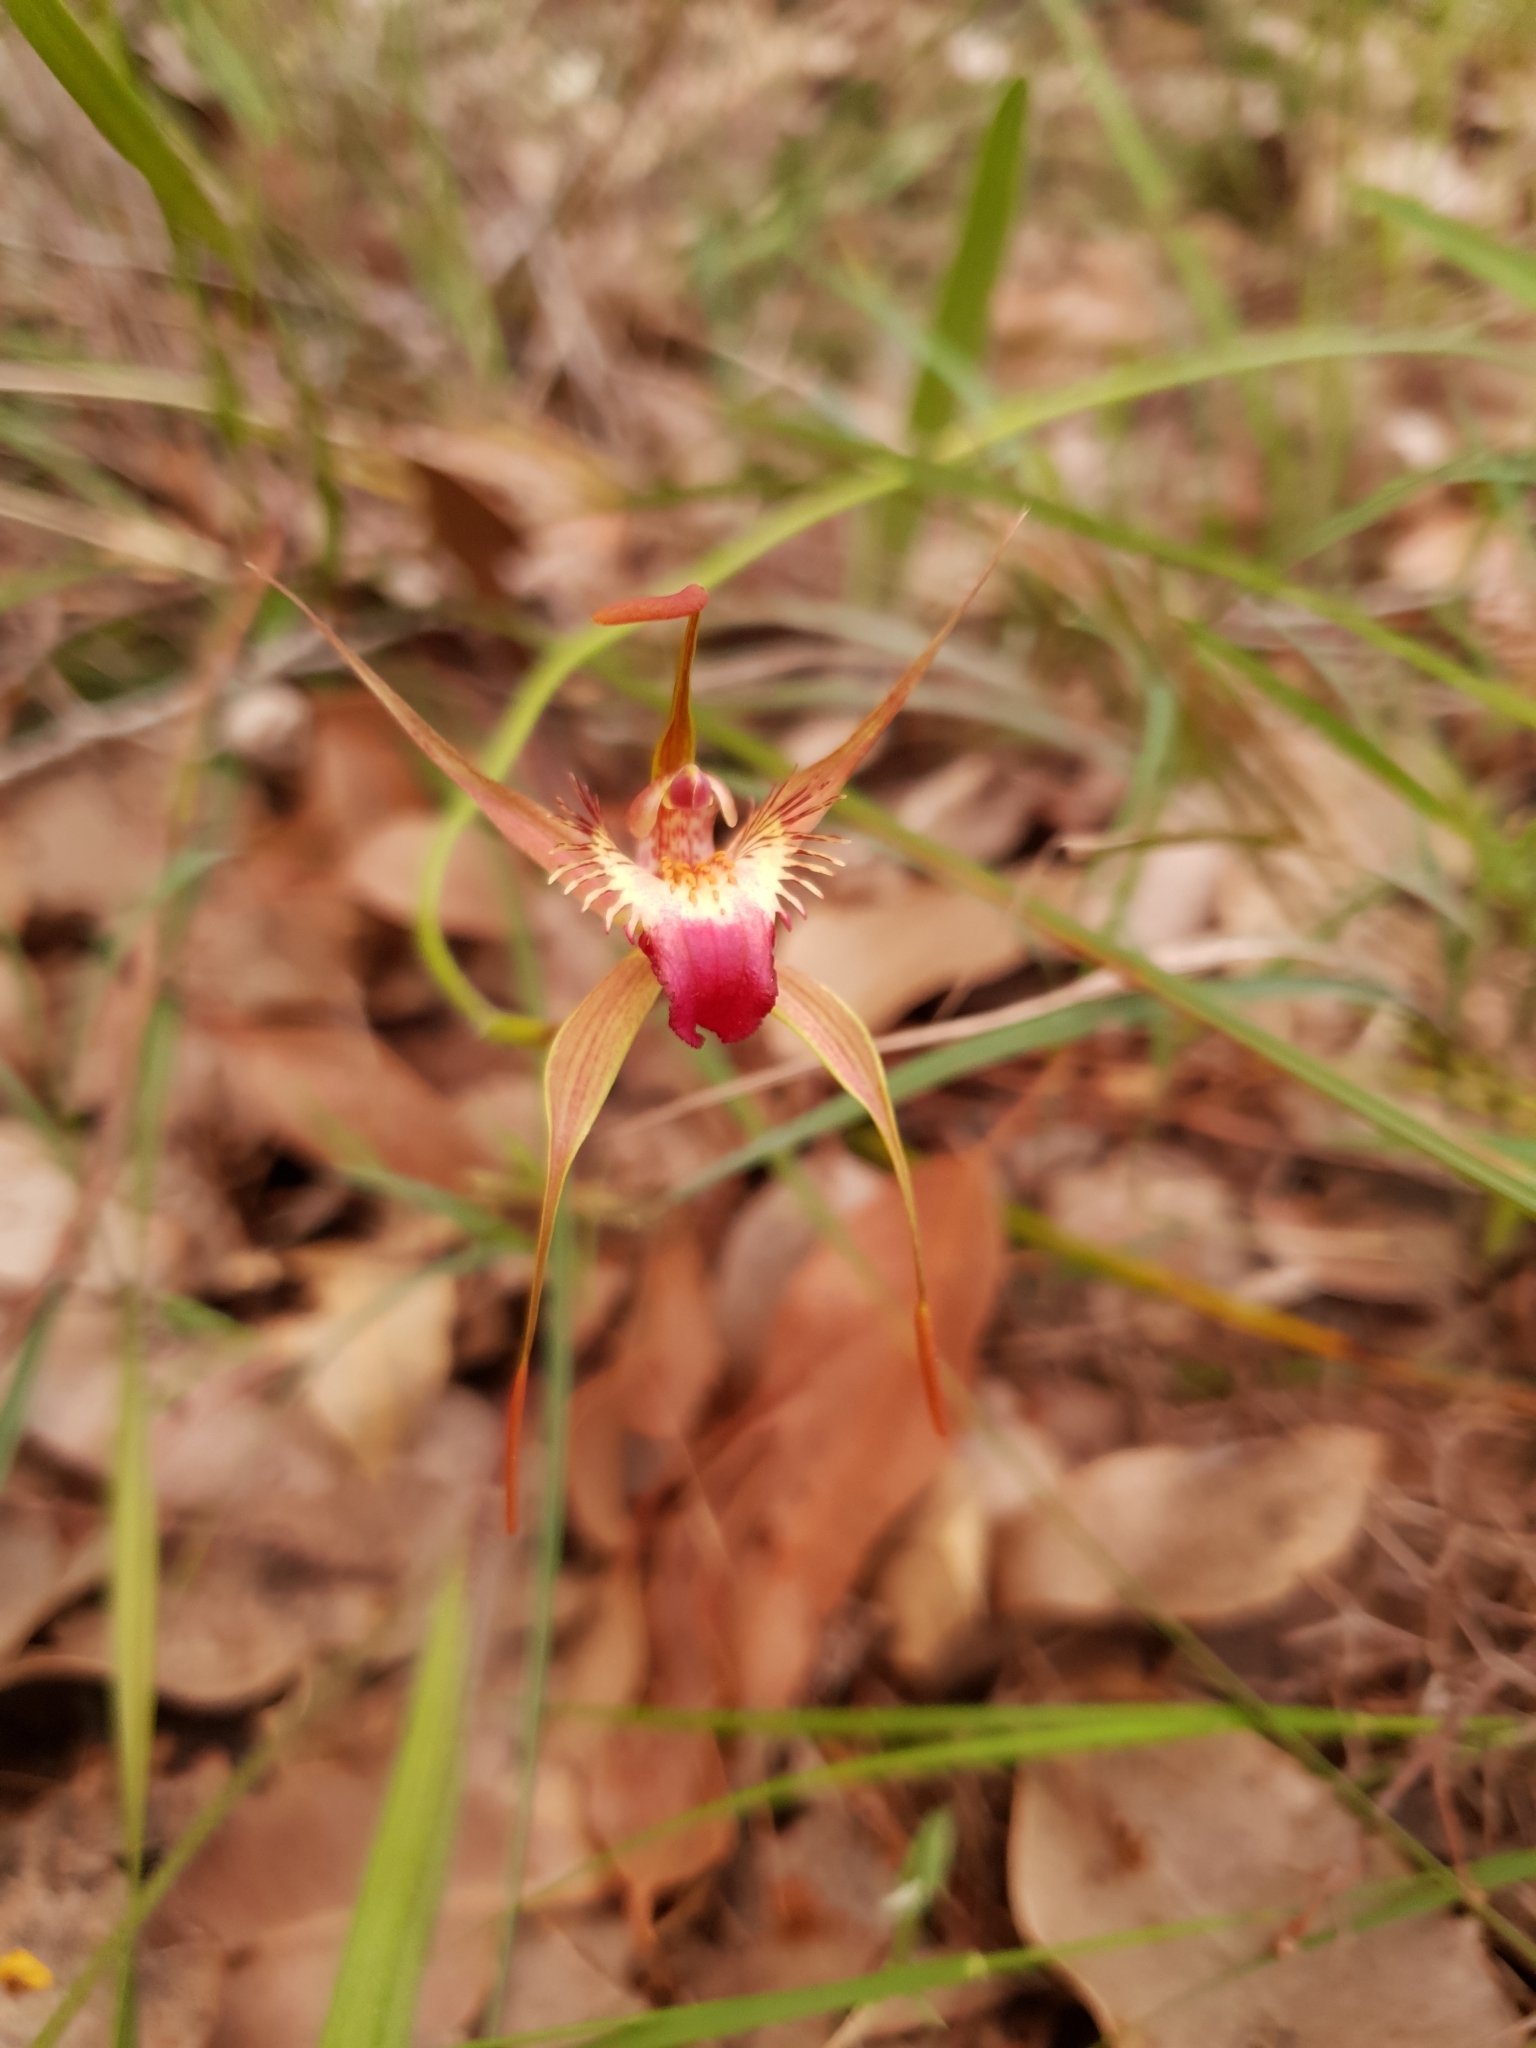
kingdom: Plantae
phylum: Tracheophyta
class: Liliopsida
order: Asparagales
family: Orchidaceae
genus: Caladenia
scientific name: Caladenia ferruginea
